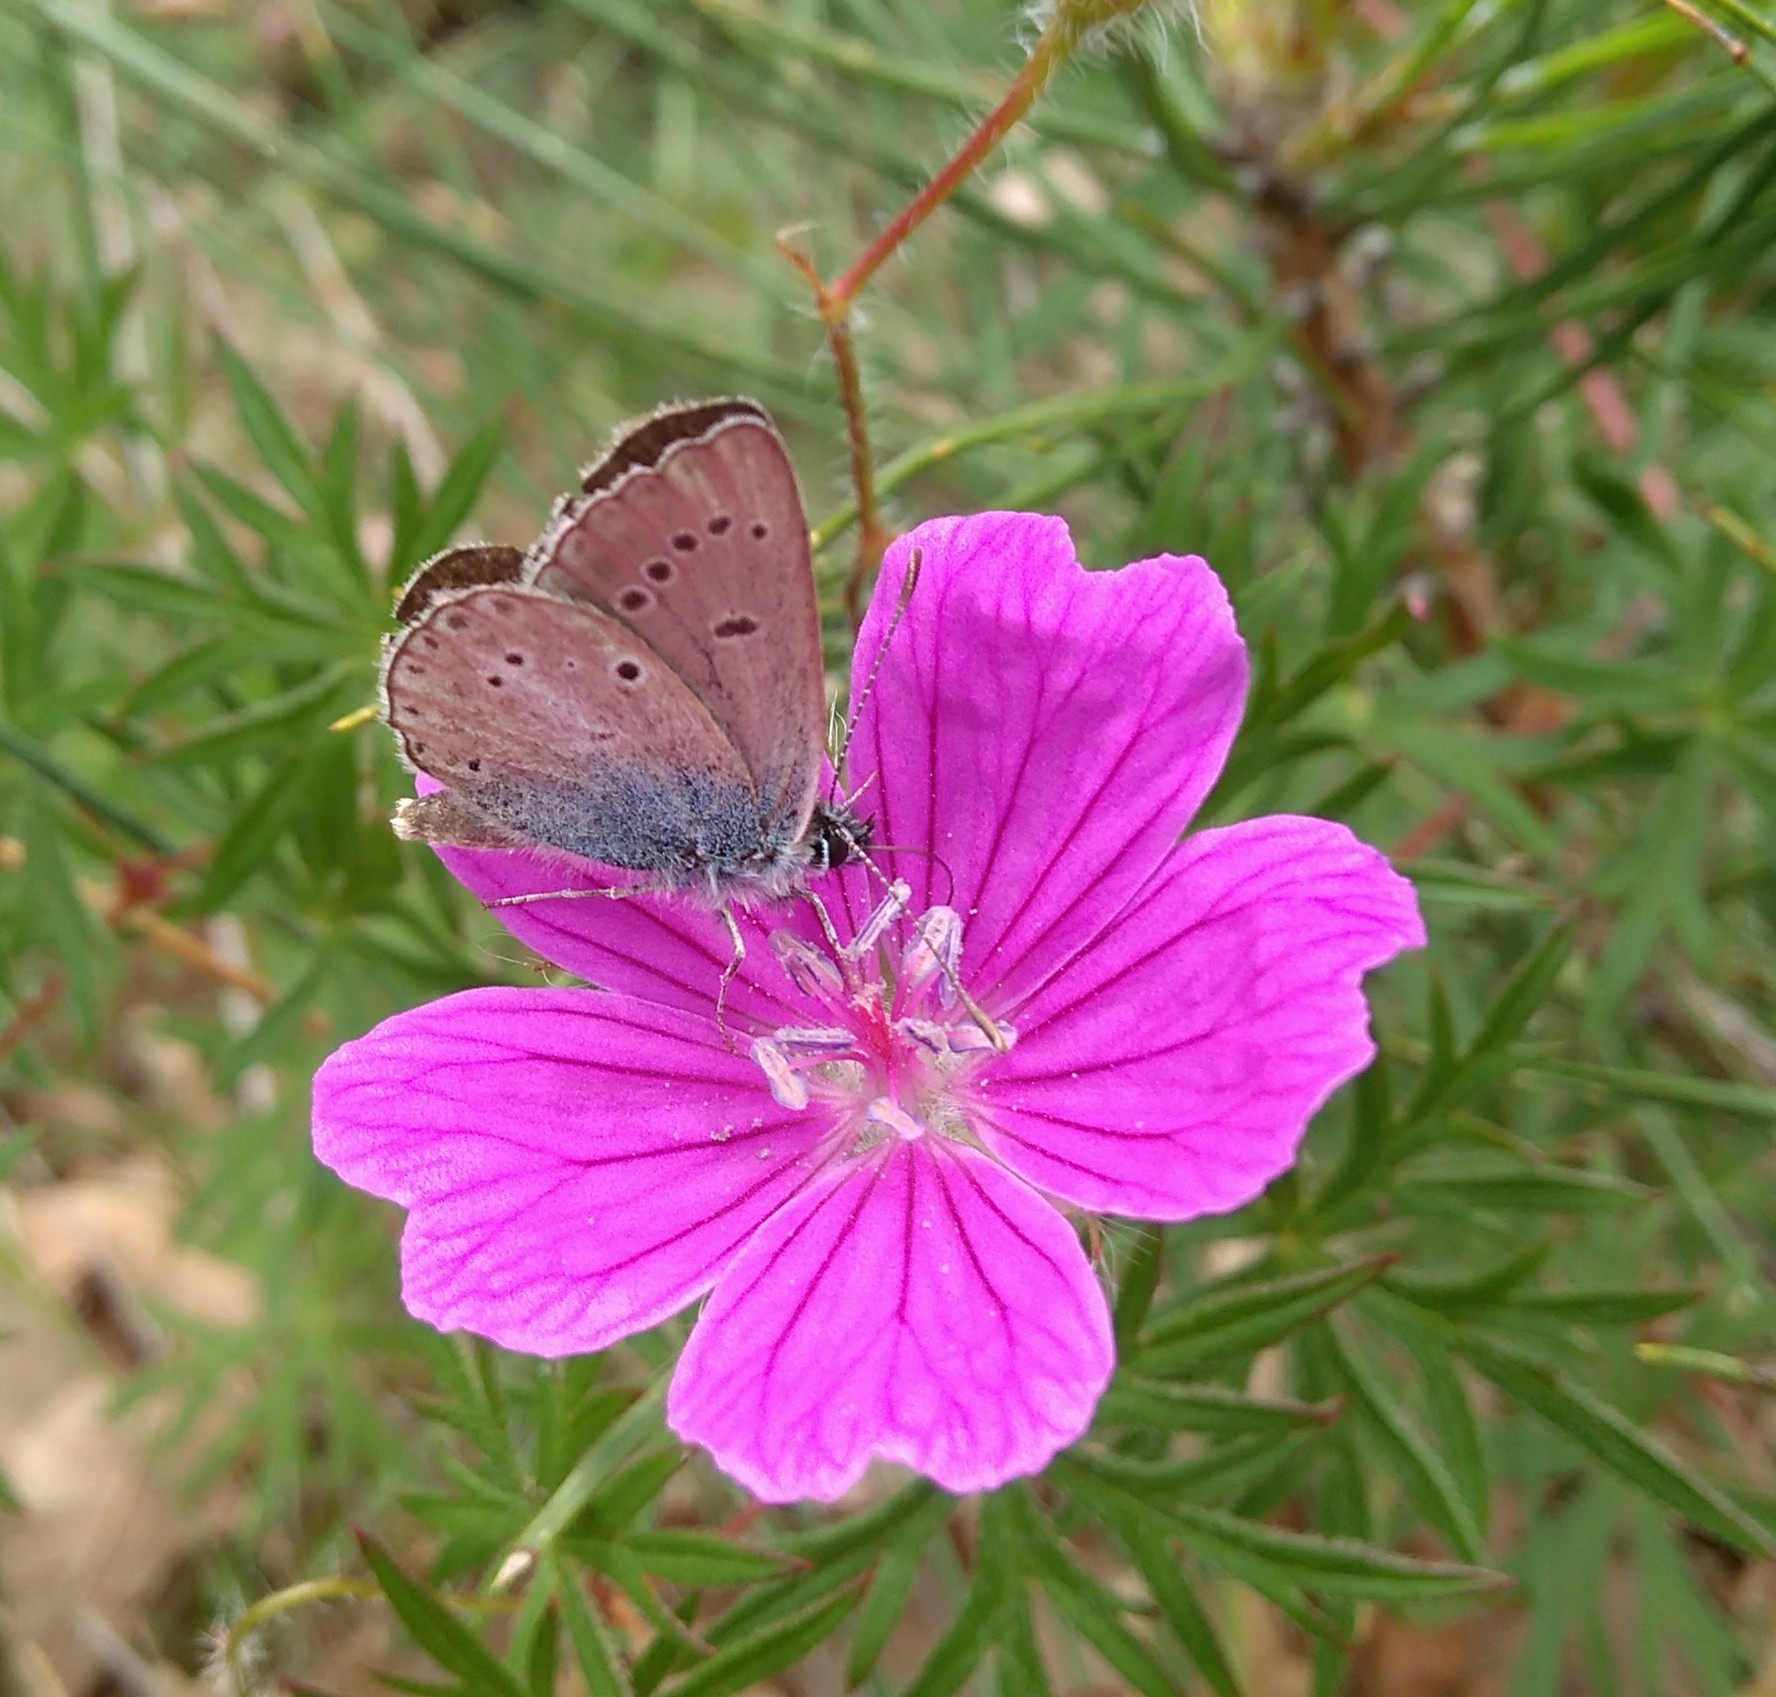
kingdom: Animalia
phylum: Arthropoda
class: Insecta
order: Lepidoptera
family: Lycaenidae
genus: Eumedonia
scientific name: Eumedonia eumedon
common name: Geranium argus
